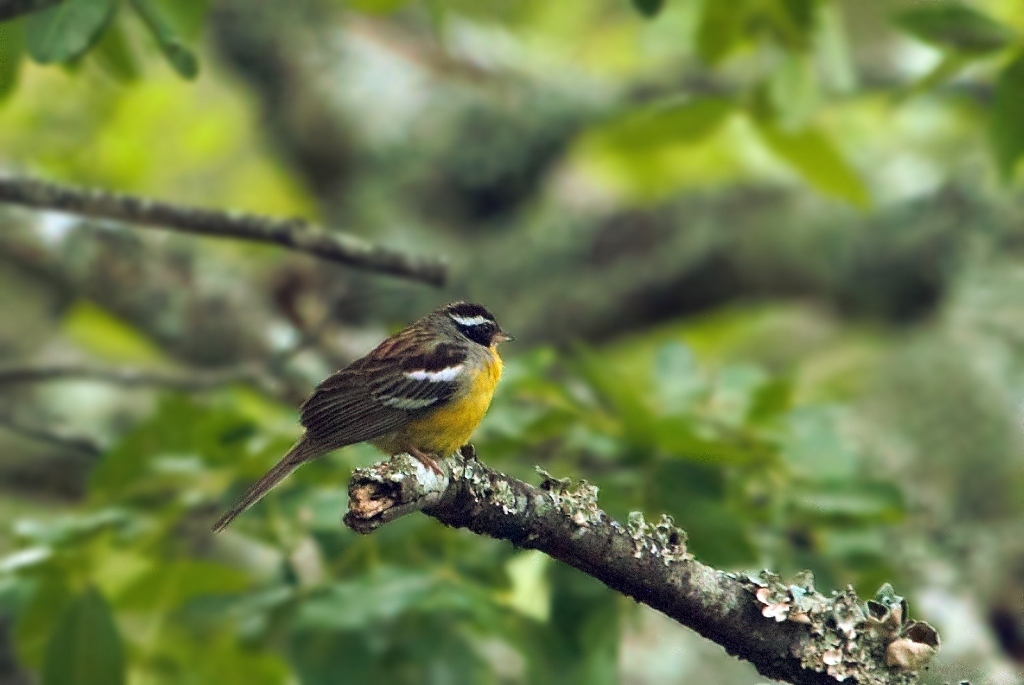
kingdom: Animalia
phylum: Chordata
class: Aves
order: Passeriformes
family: Emberizidae
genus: Emberiza
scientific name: Emberiza cabanisi
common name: Cabanis's bunting
